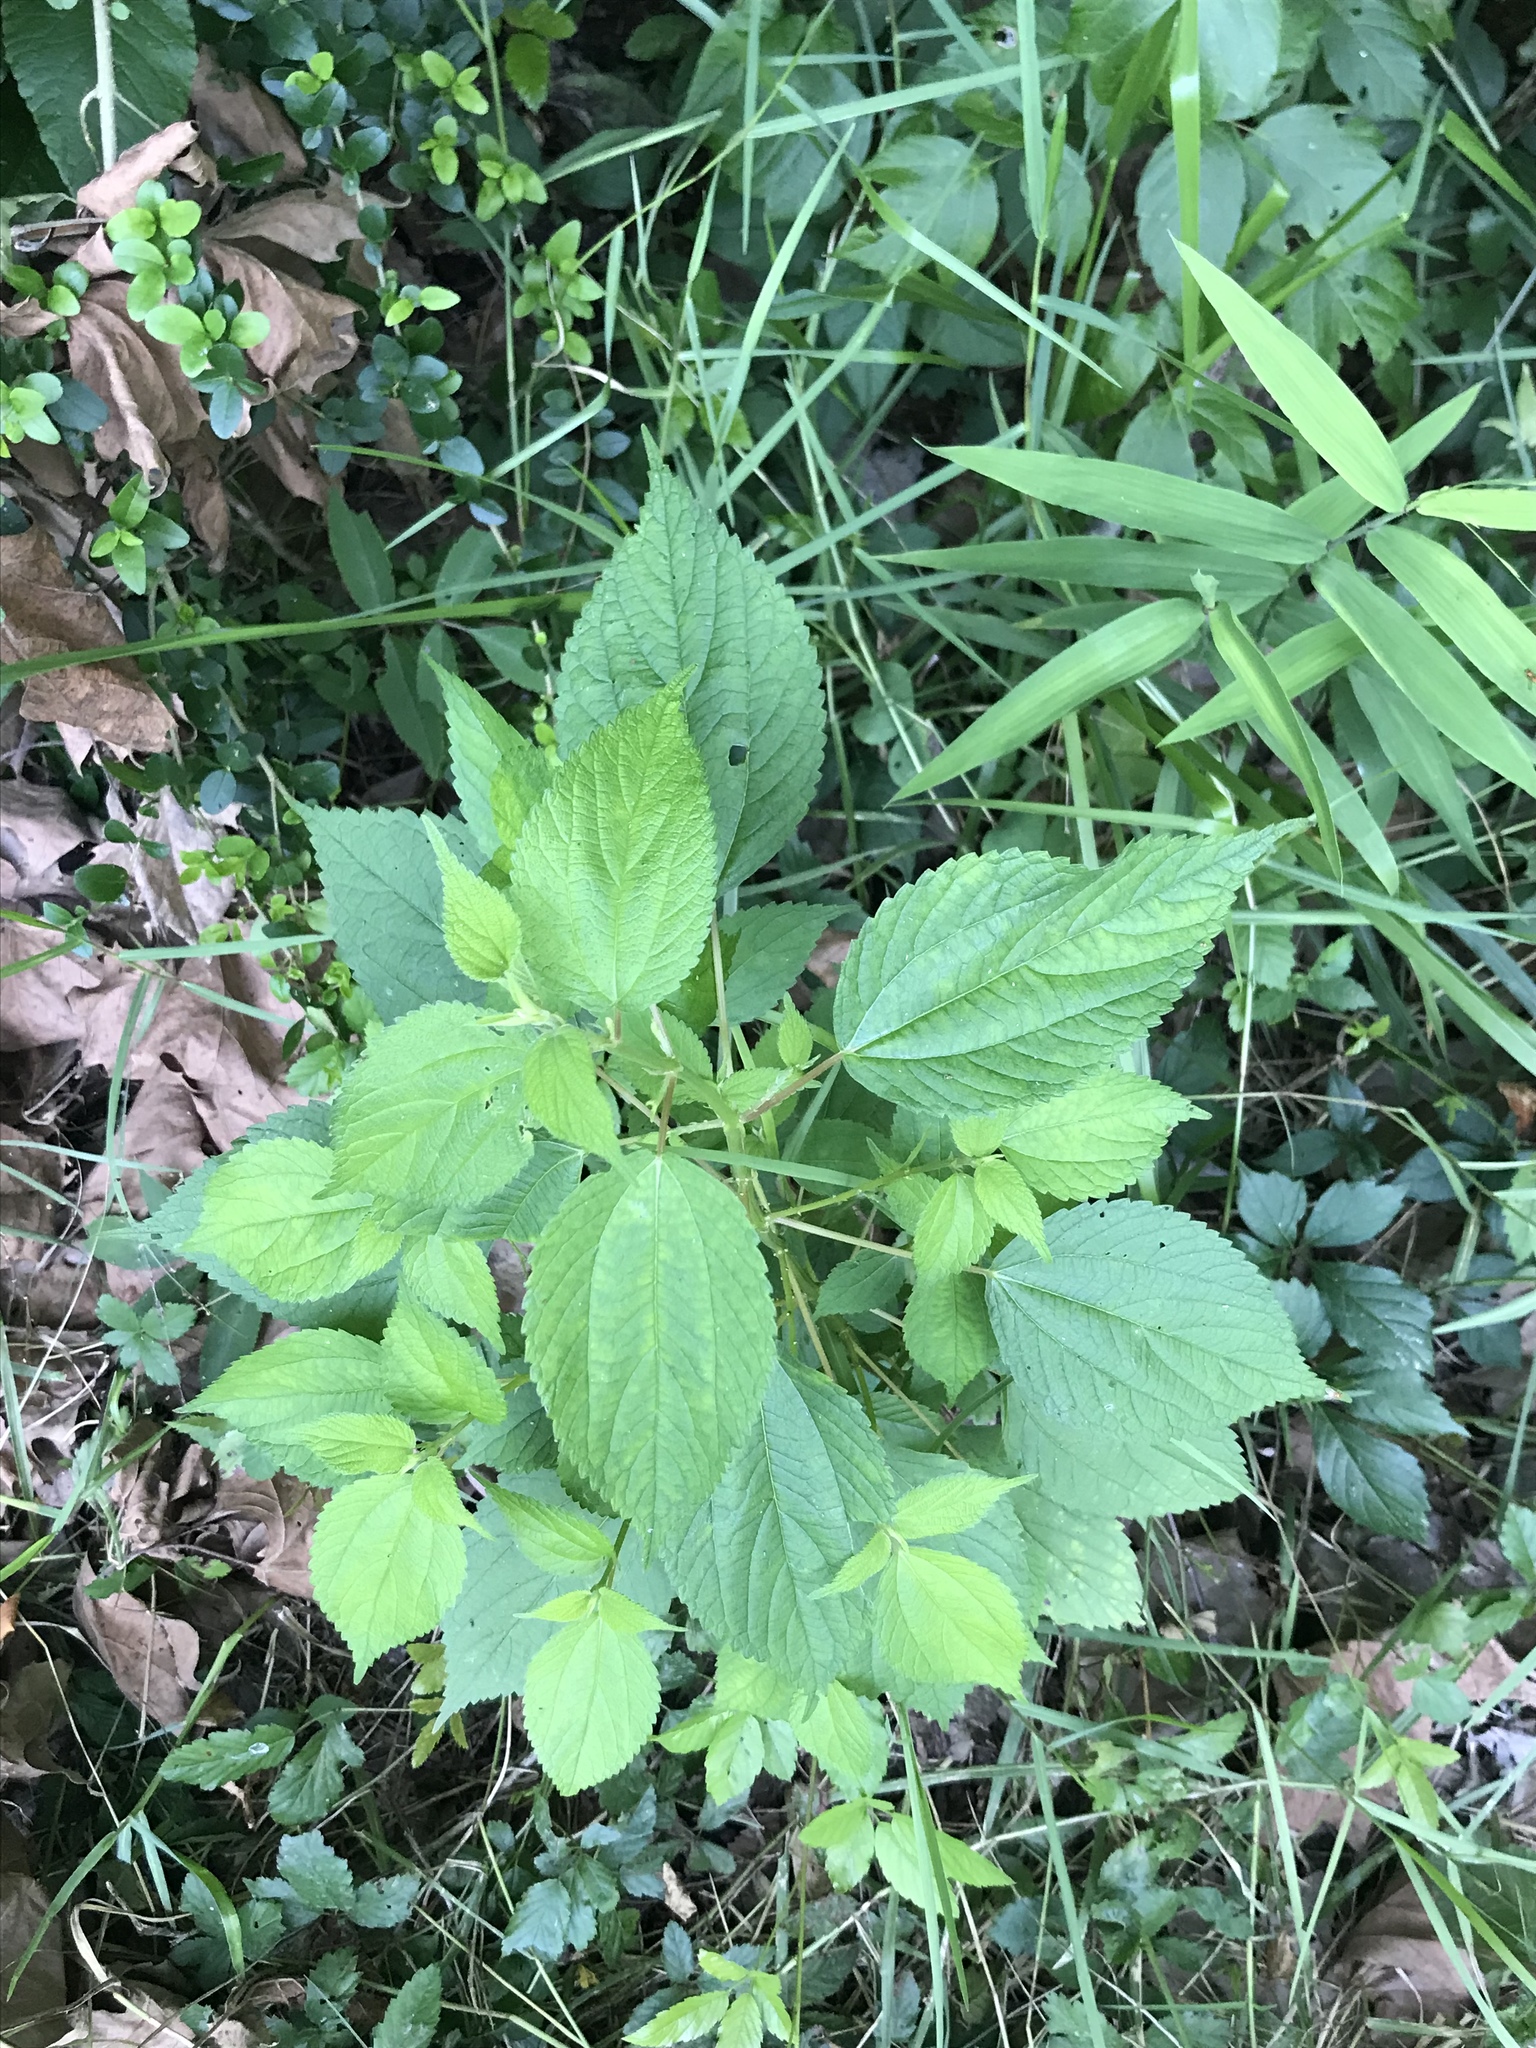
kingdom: Plantae
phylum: Tracheophyta
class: Magnoliopsida
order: Rosales
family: Urticaceae
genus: Boehmeria
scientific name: Boehmeria cylindrica
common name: Bog-hemp
